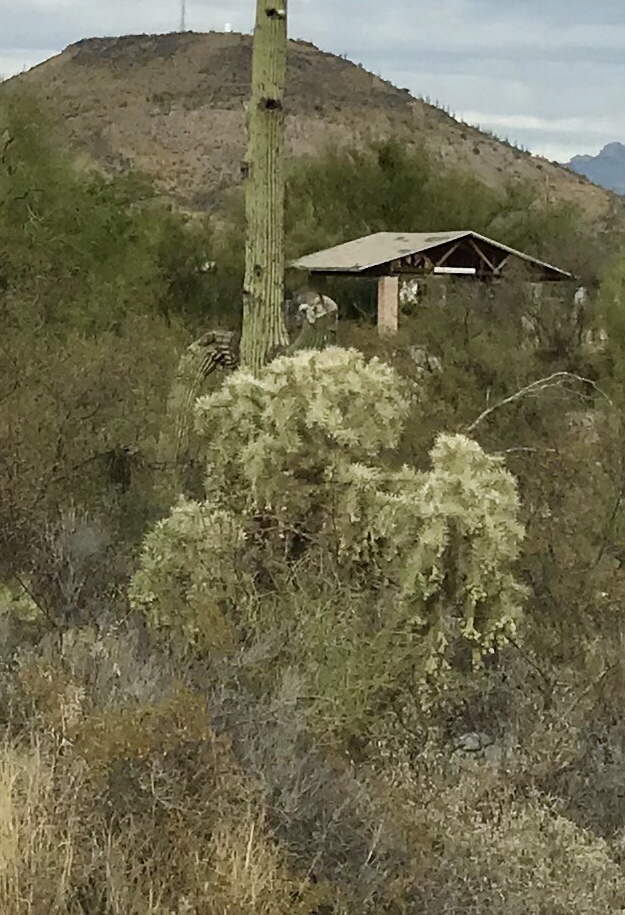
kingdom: Plantae
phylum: Tracheophyta
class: Magnoliopsida
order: Caryophyllales
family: Cactaceae
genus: Cylindropuntia
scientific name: Cylindropuntia fulgida
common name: Jumping cholla
